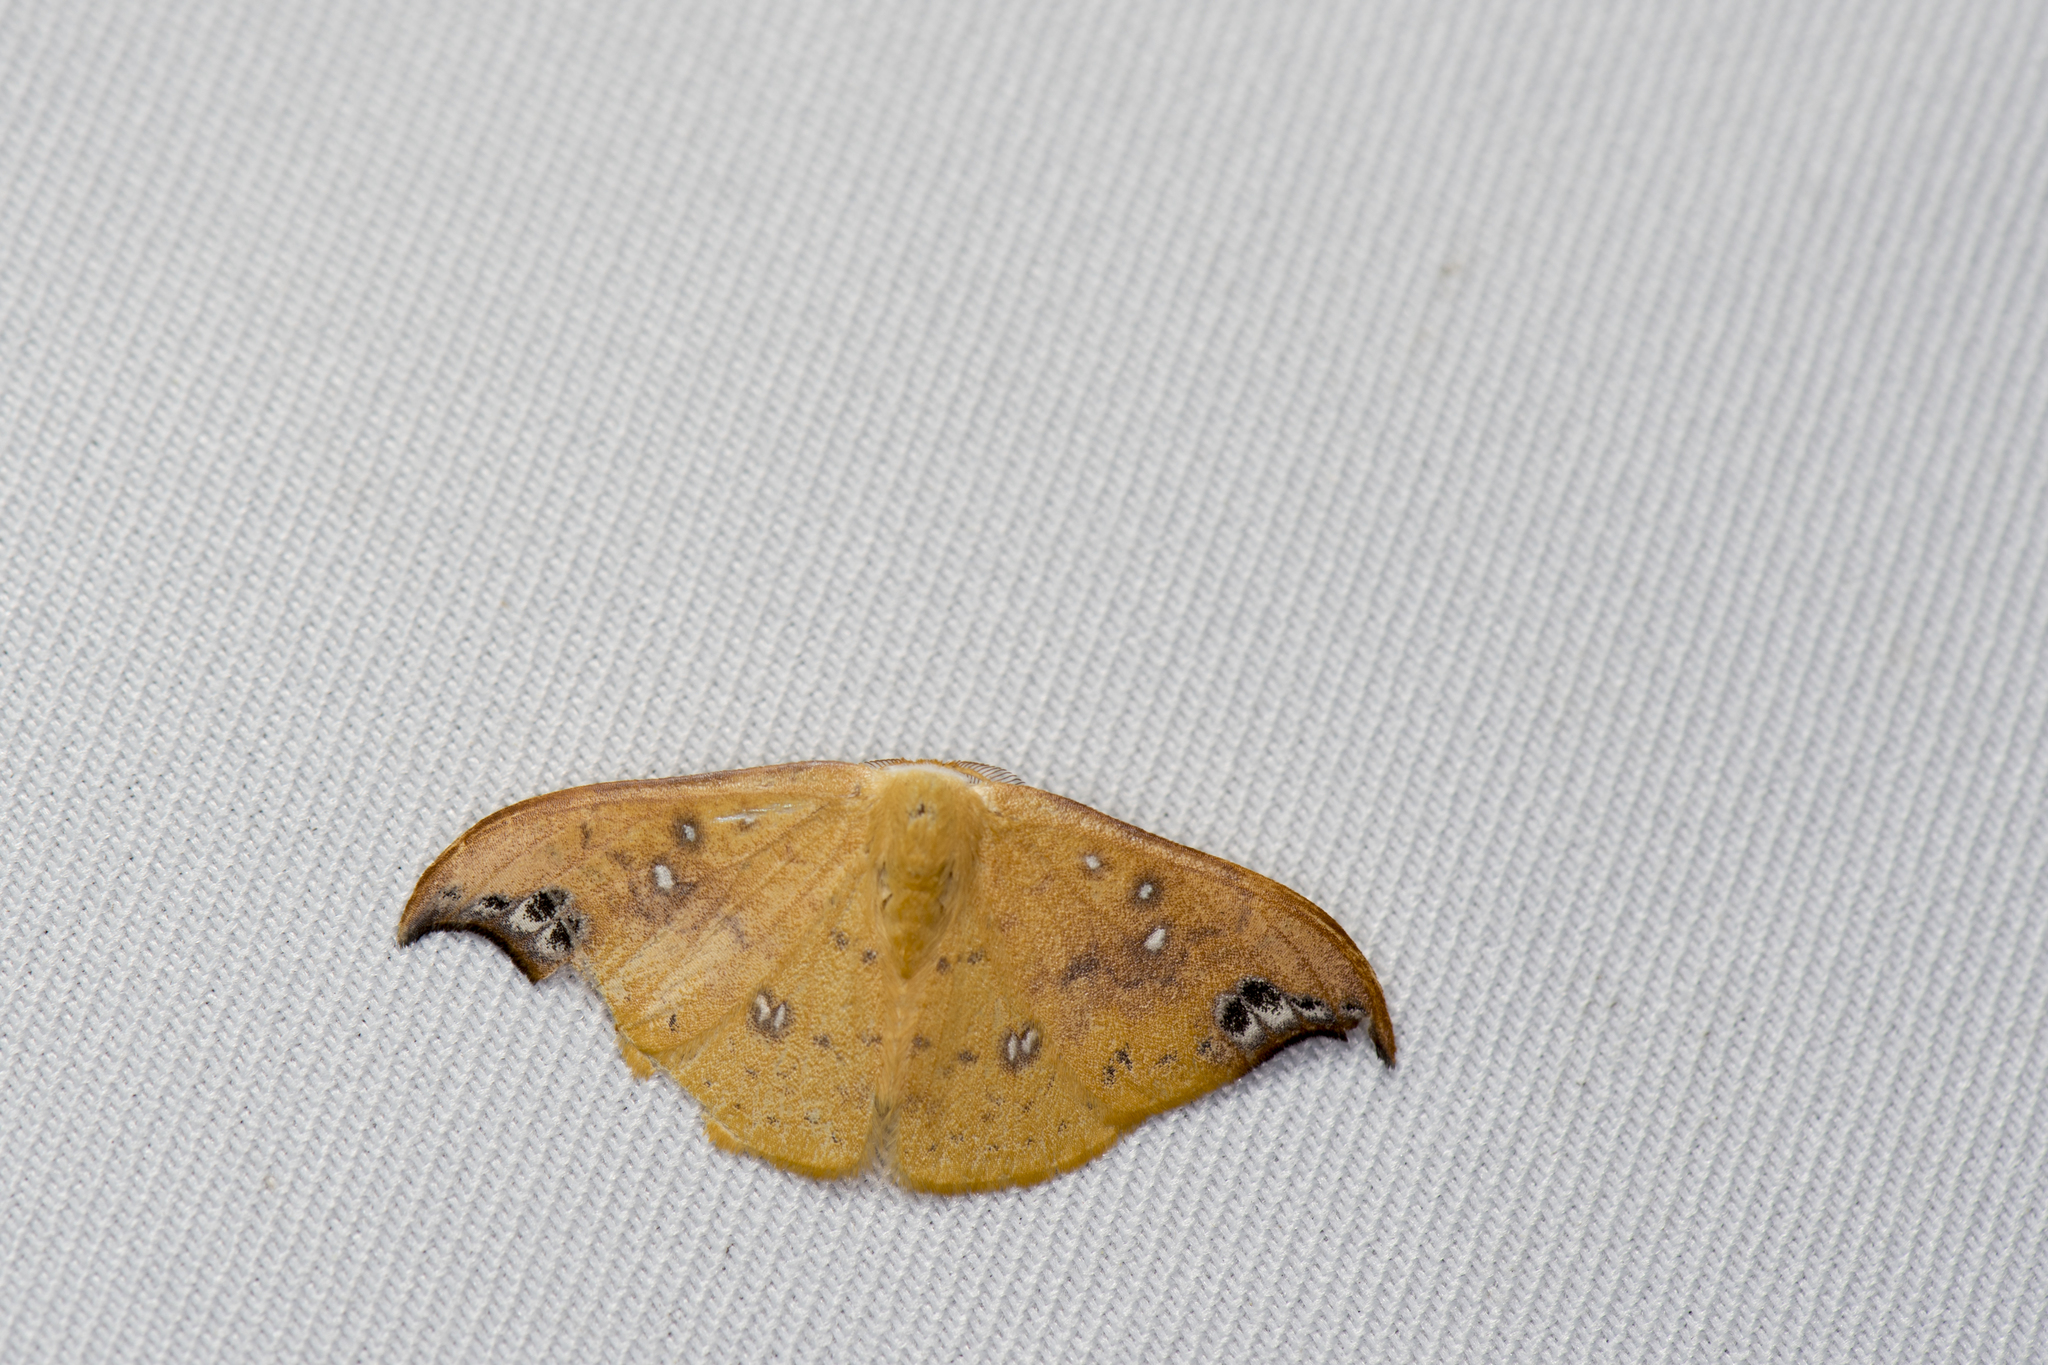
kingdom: Animalia
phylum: Arthropoda
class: Insecta
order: Lepidoptera
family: Drepanidae
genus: Tridrepana
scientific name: Tridrepana unispina
